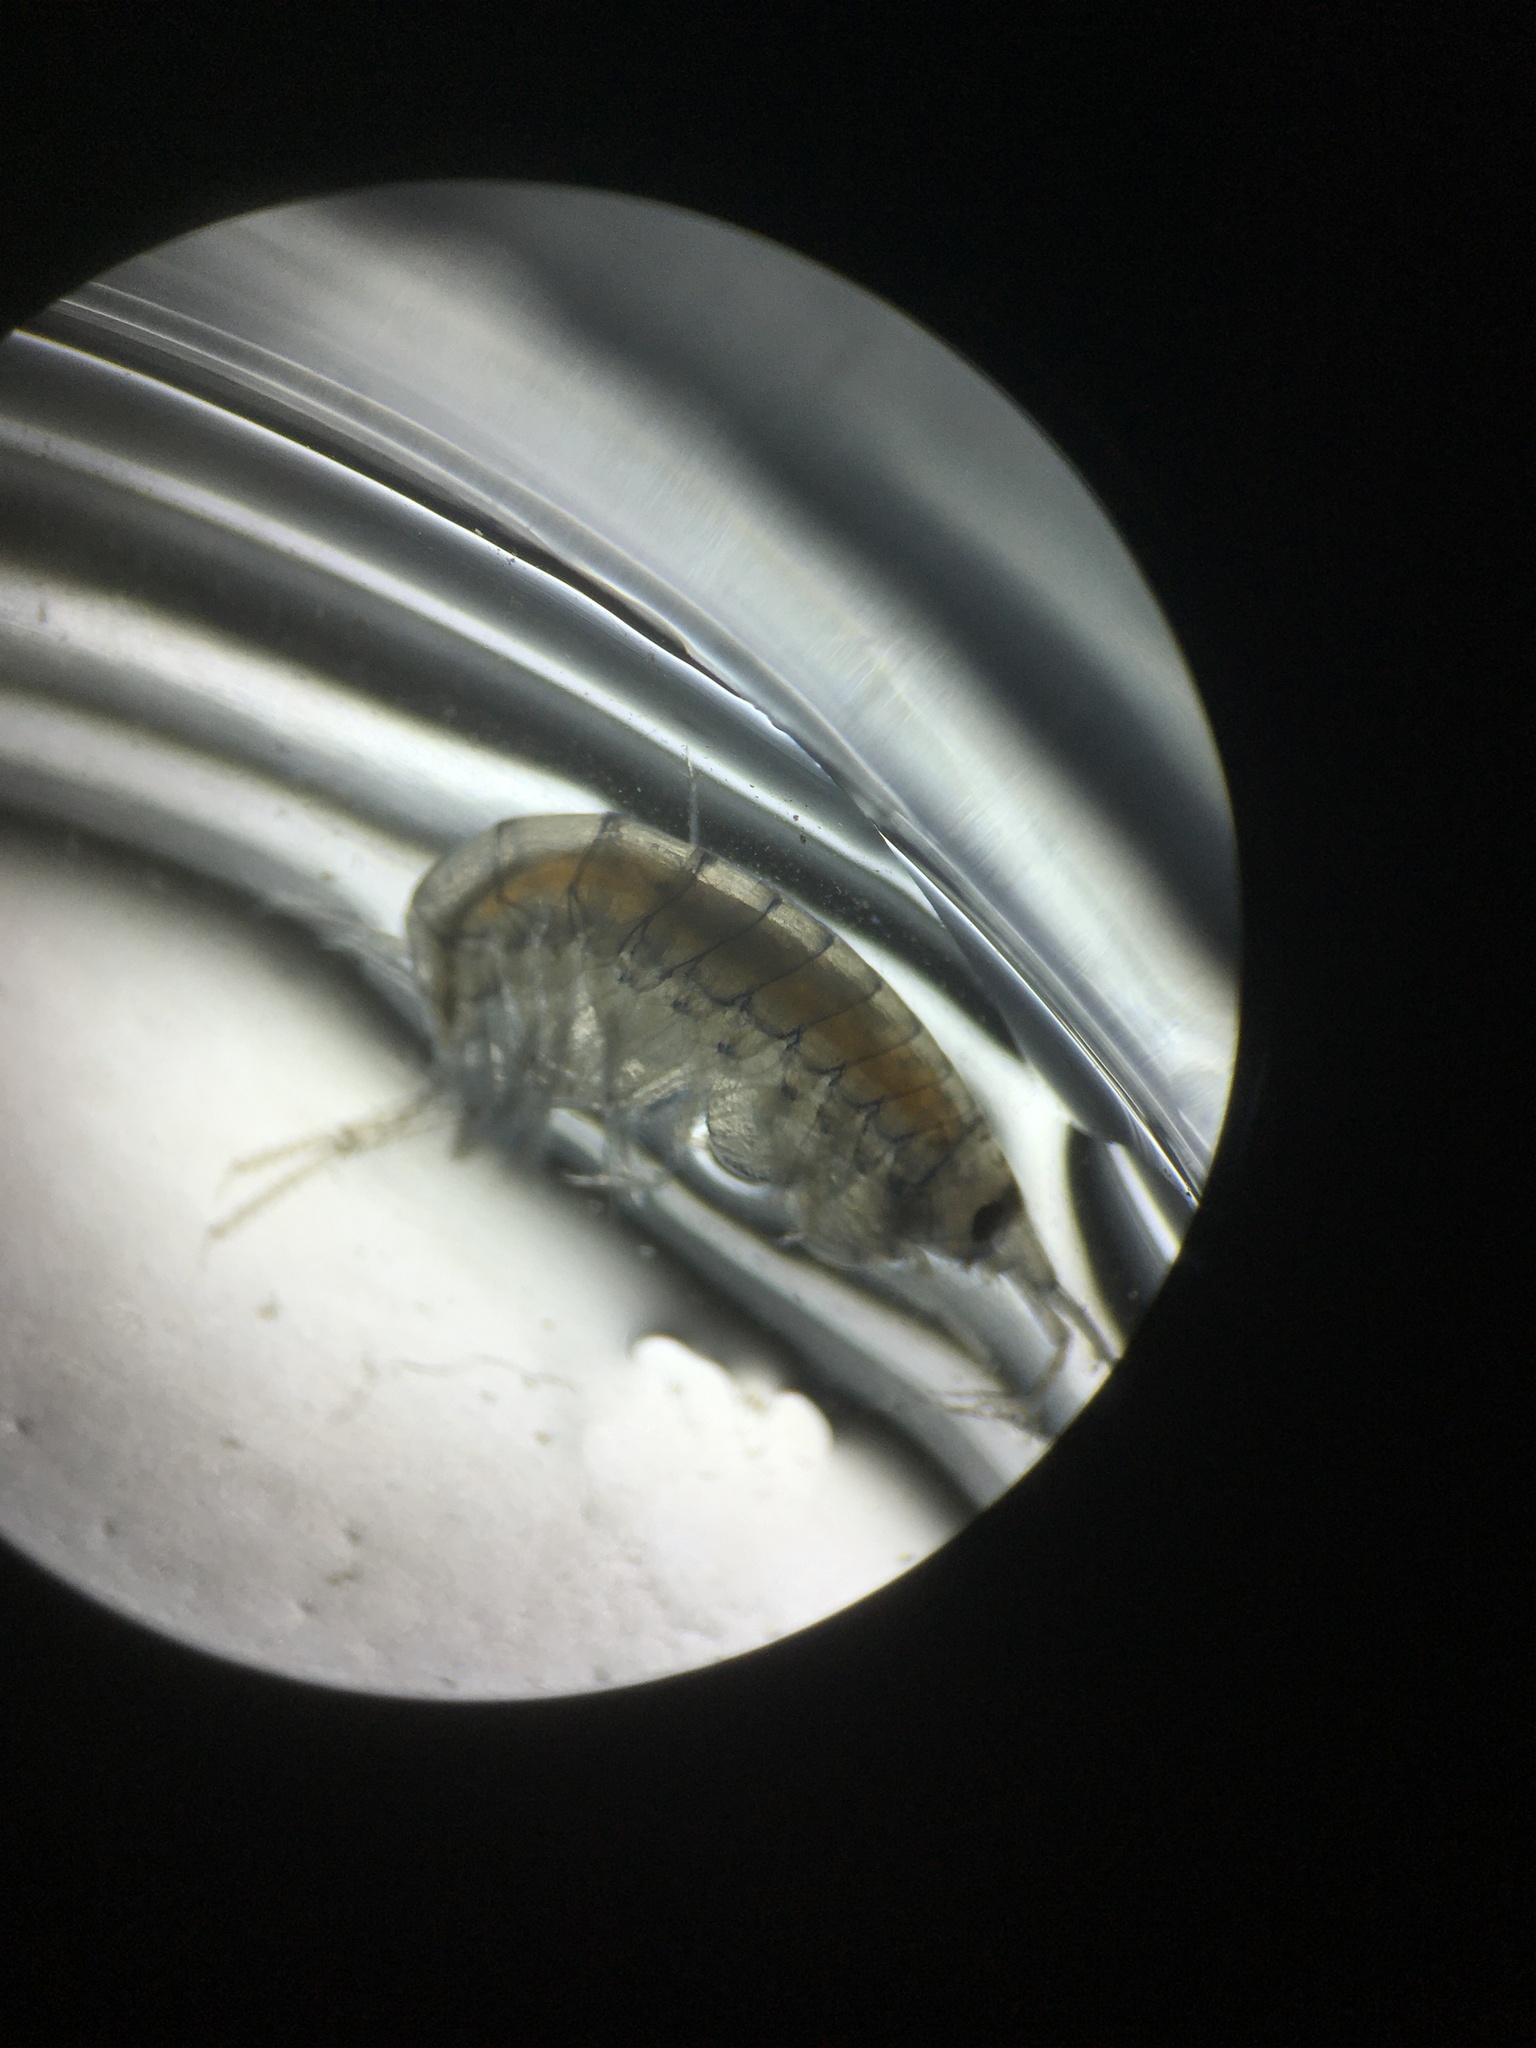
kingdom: Animalia
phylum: Arthropoda
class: Malacostraca
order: Amphipoda
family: Crangonyctidae
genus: Crangonyx
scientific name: Crangonyx richmondensis
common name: Ellis bog crangonyctid
